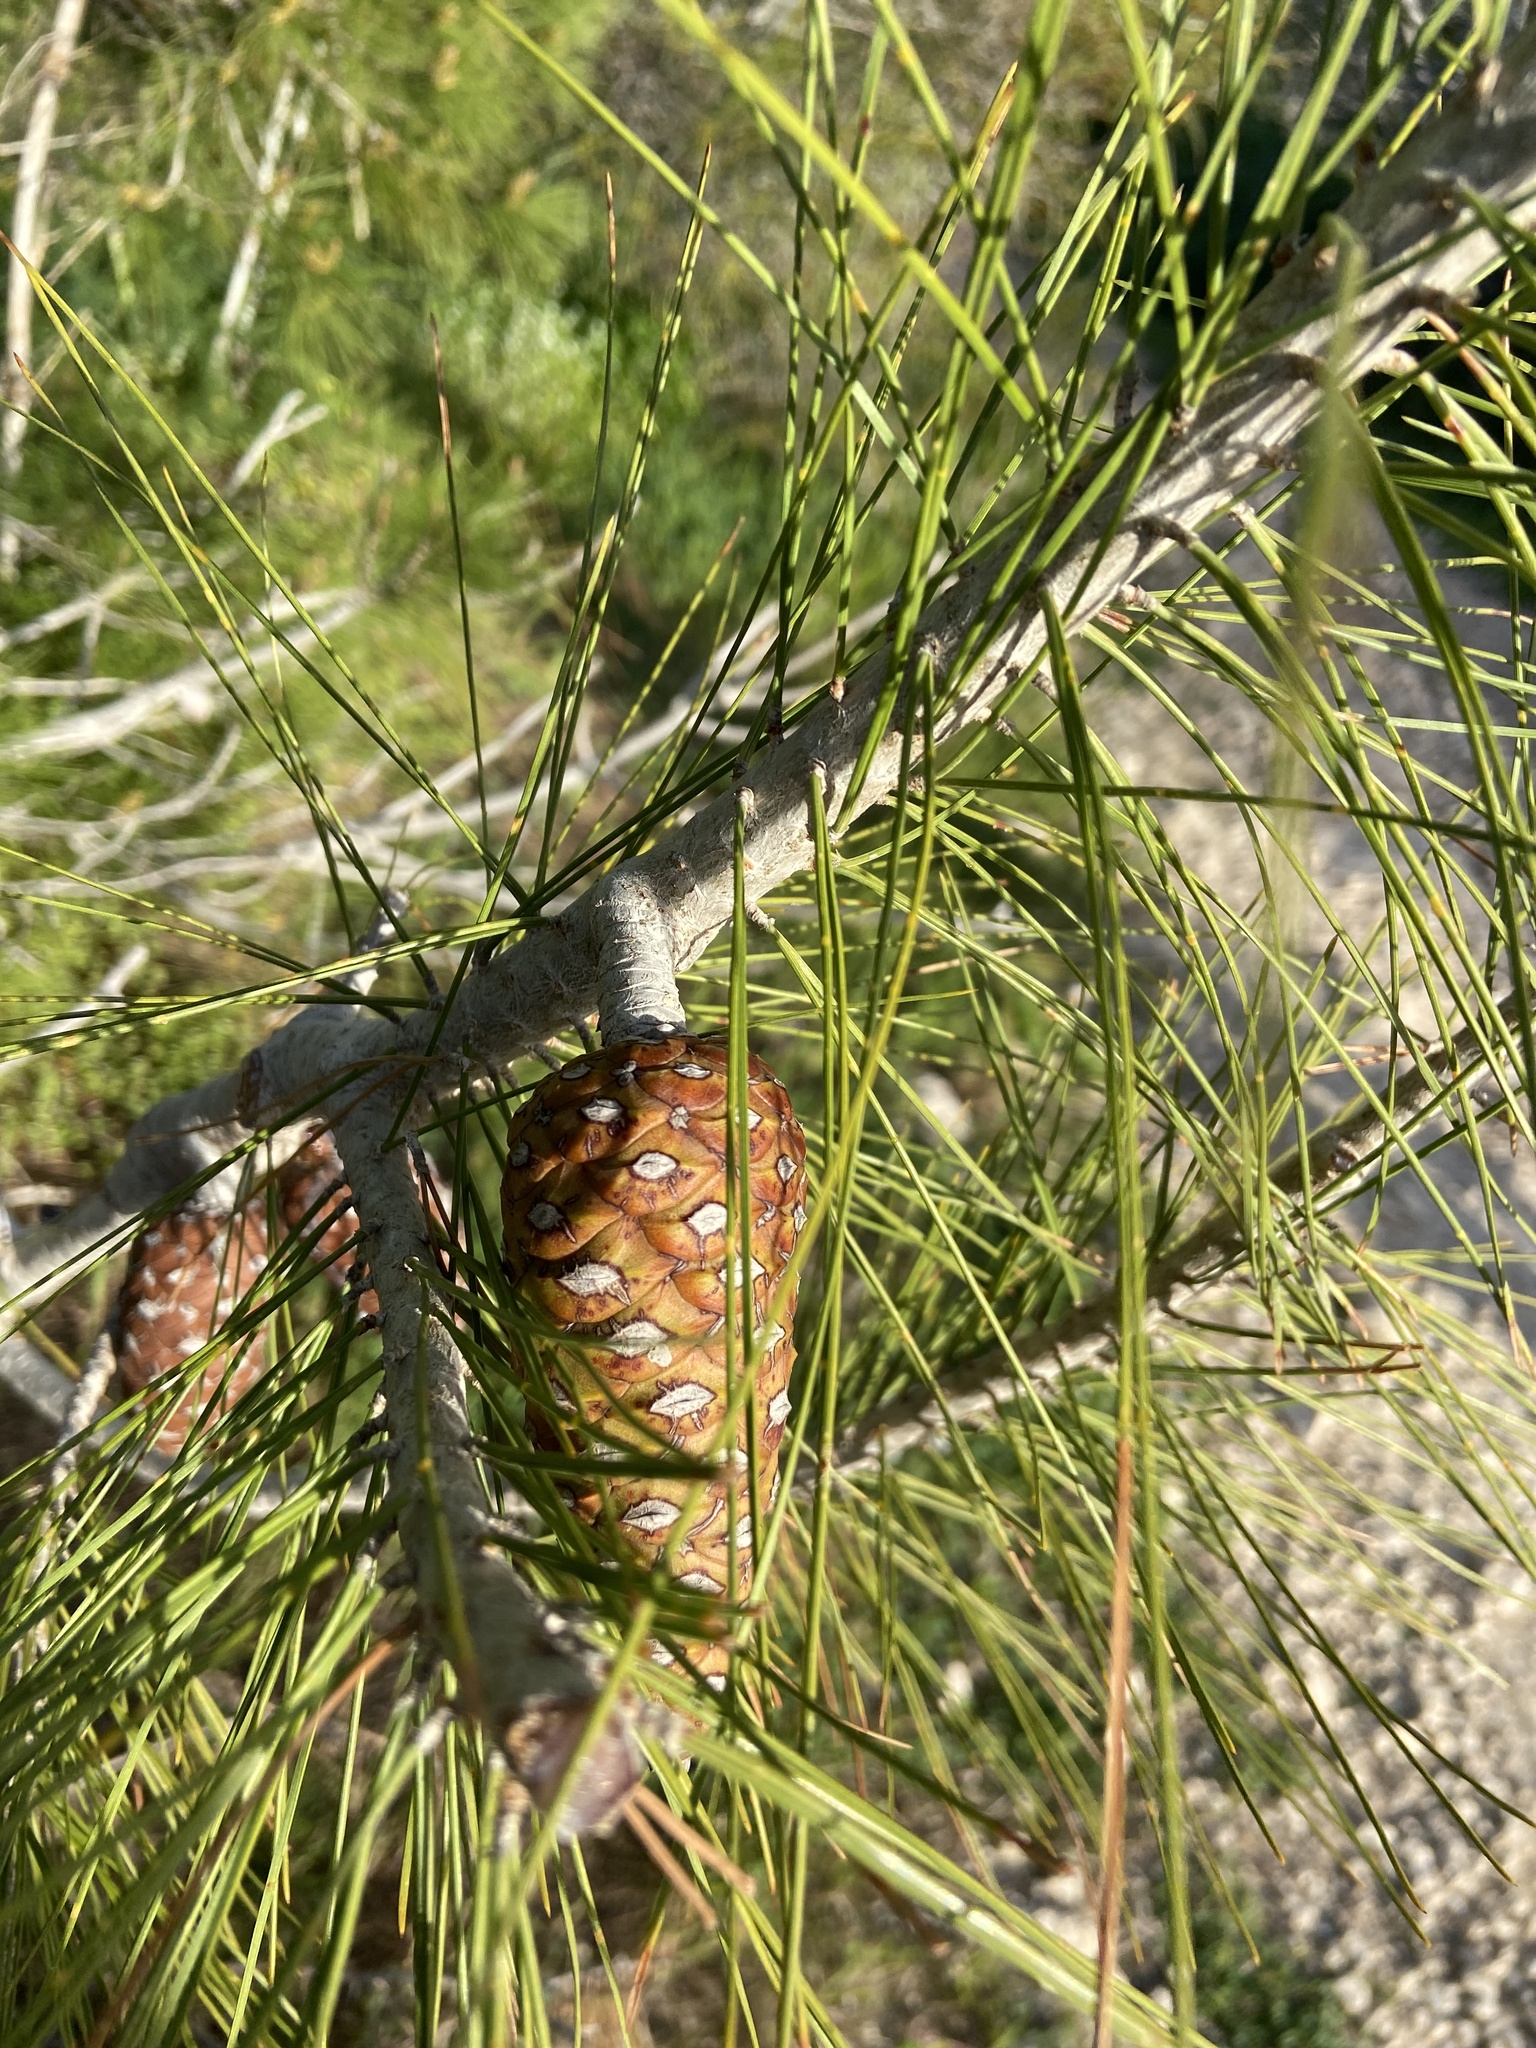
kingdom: Plantae
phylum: Tracheophyta
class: Pinopsida
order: Pinales
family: Pinaceae
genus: Pinus
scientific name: Pinus halepensis
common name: Aleppo pine
